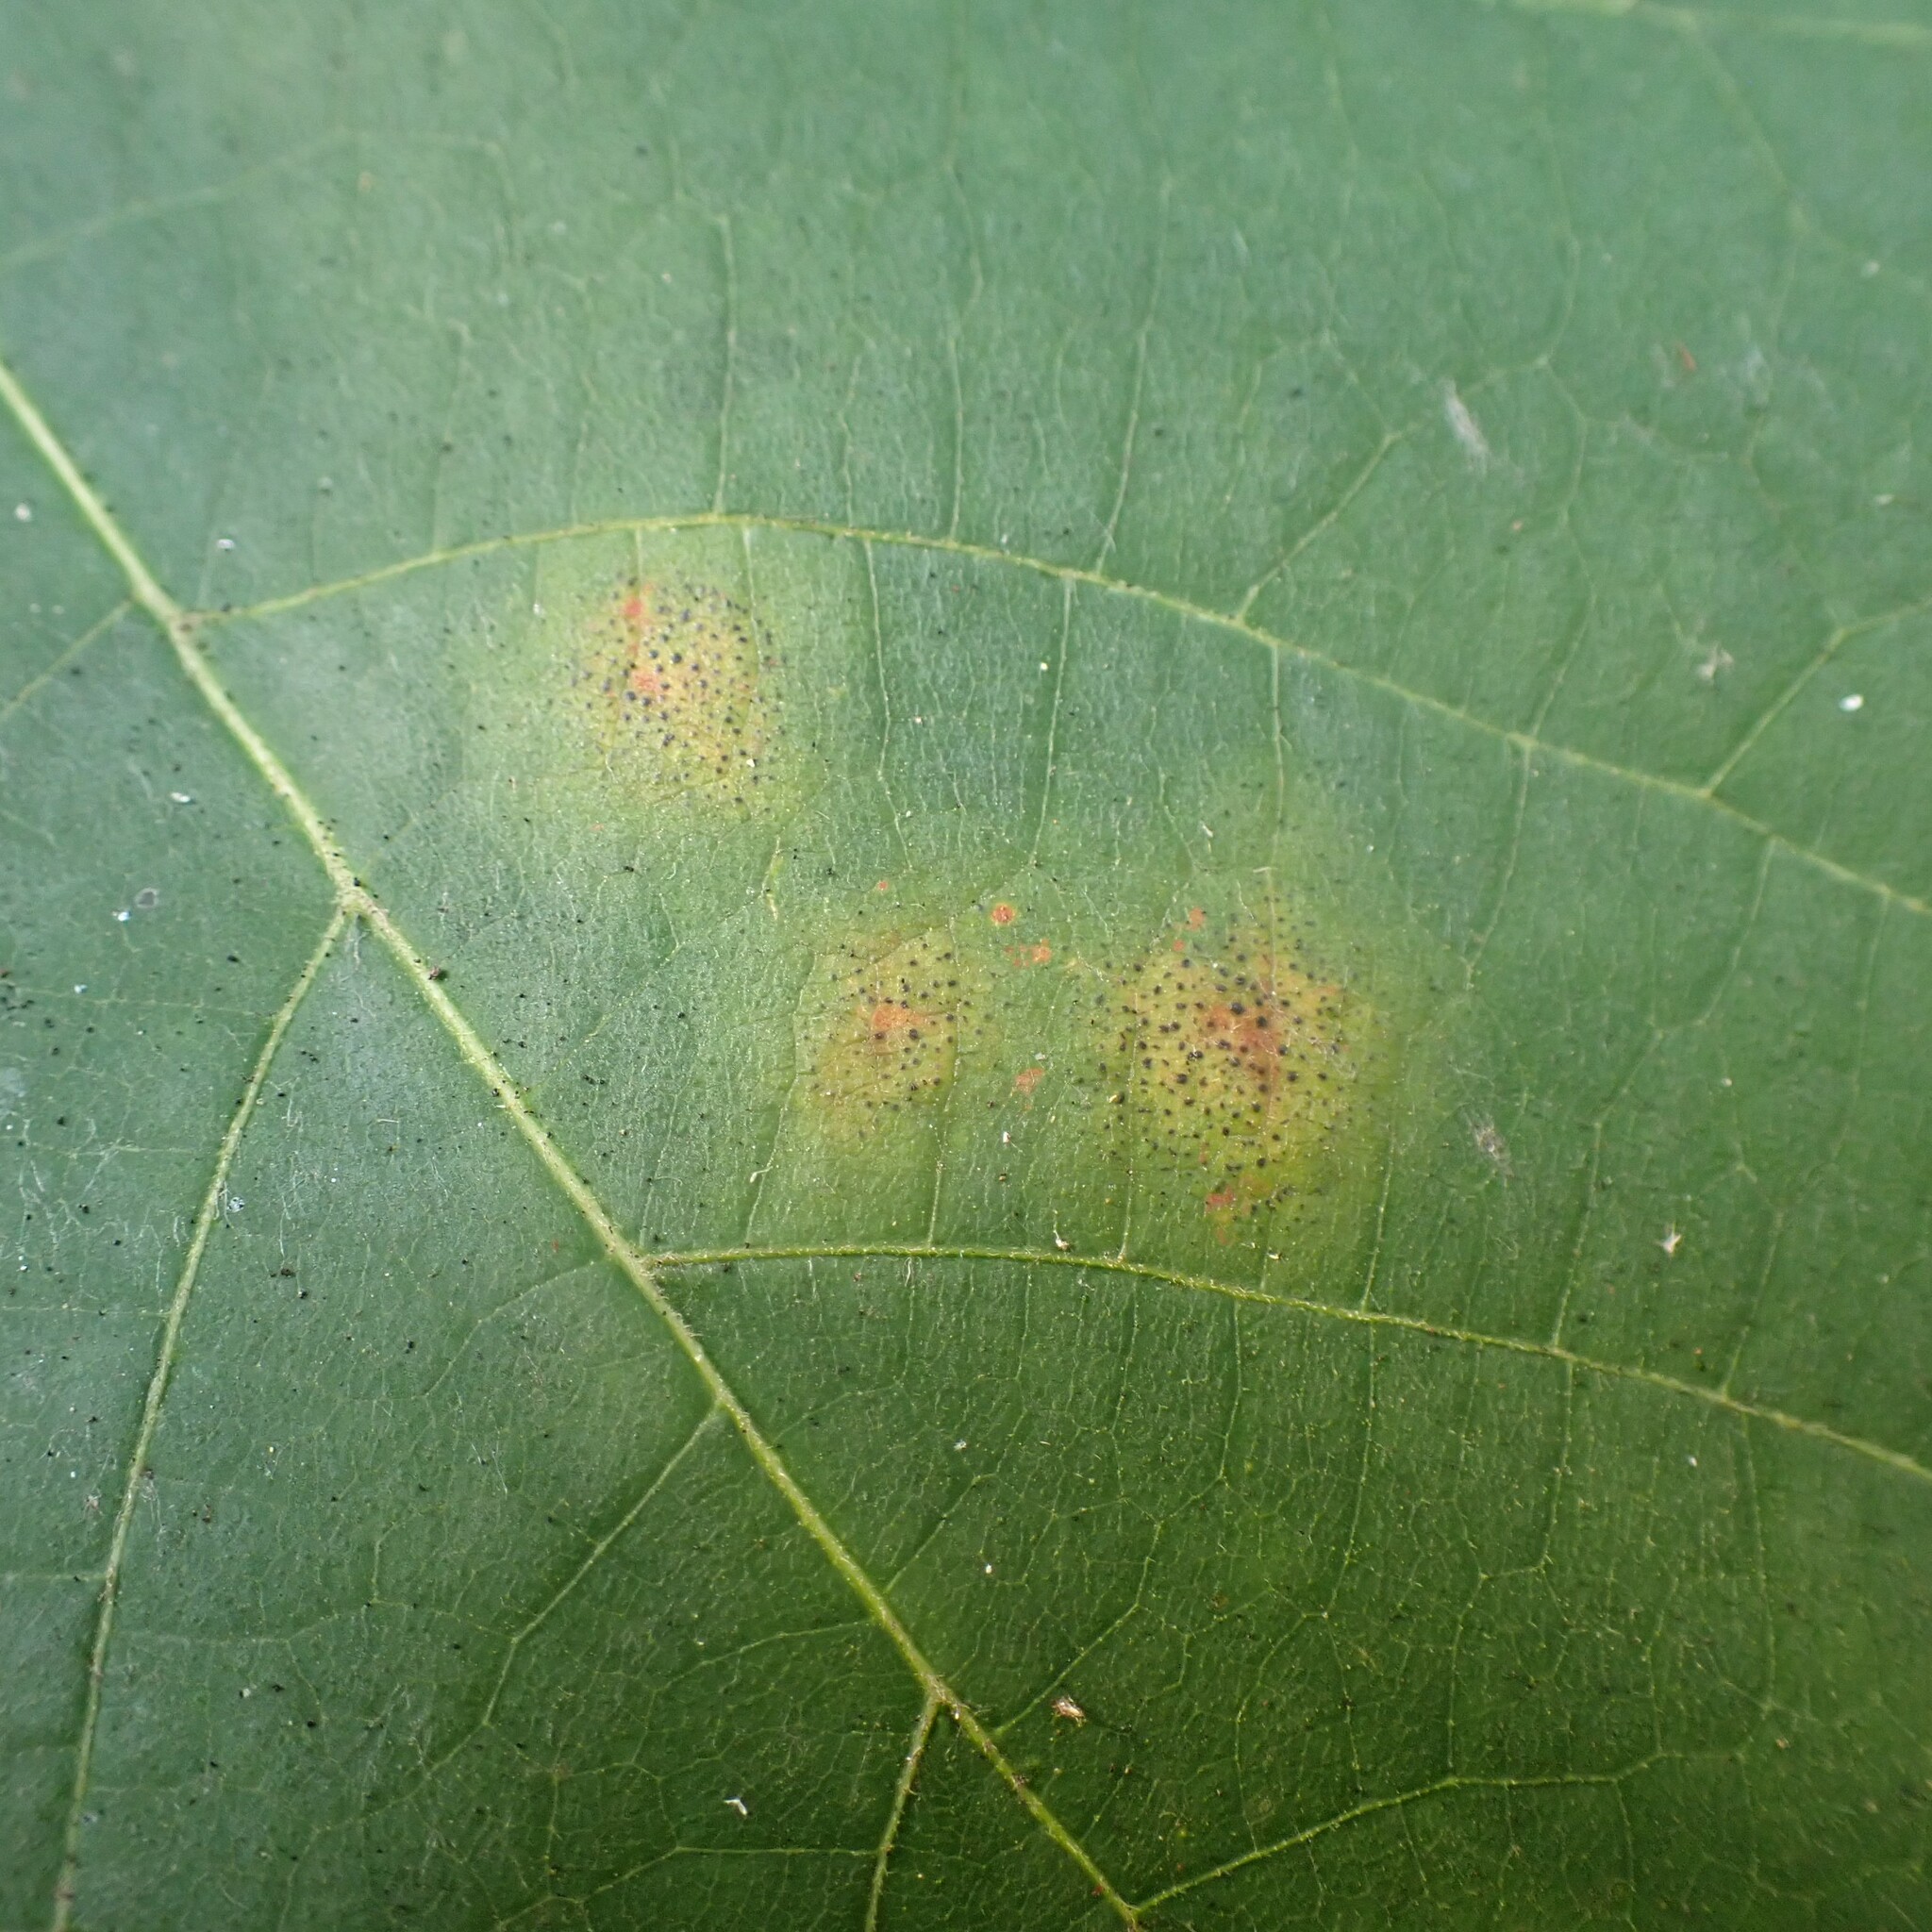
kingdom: Fungi
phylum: Ascomycota
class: Leotiomycetes
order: Rhytismatales
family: Rhytismataceae
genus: Rhytisma
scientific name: Rhytisma punctatum
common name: Speckled tar spot
